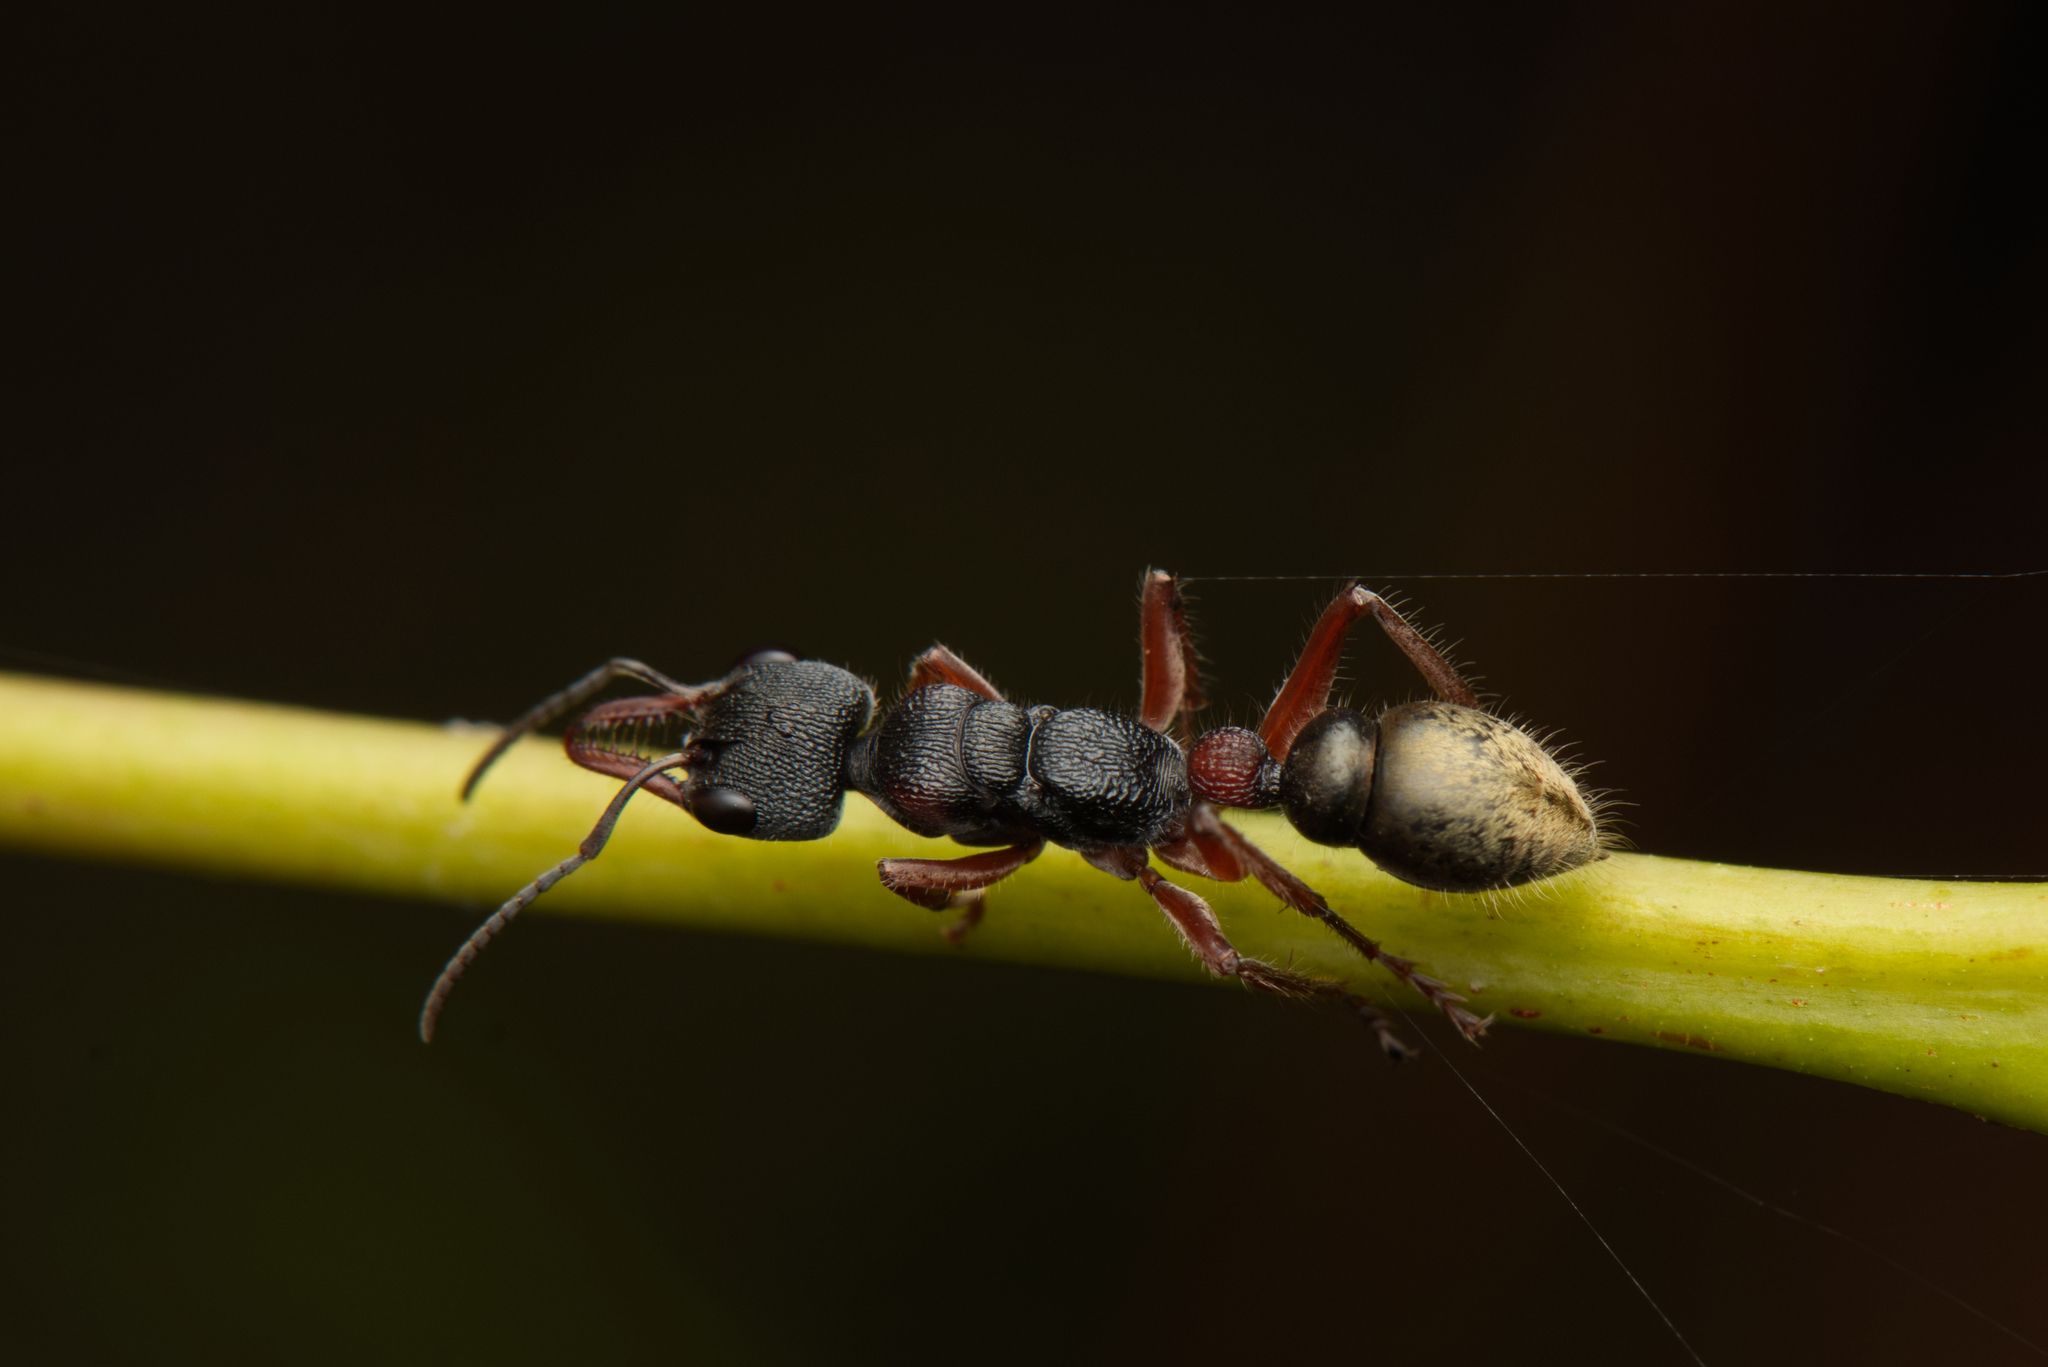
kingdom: Animalia
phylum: Arthropoda
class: Insecta
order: Hymenoptera
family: Formicidae
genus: Myrmecia
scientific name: Myrmecia chrysogaster
